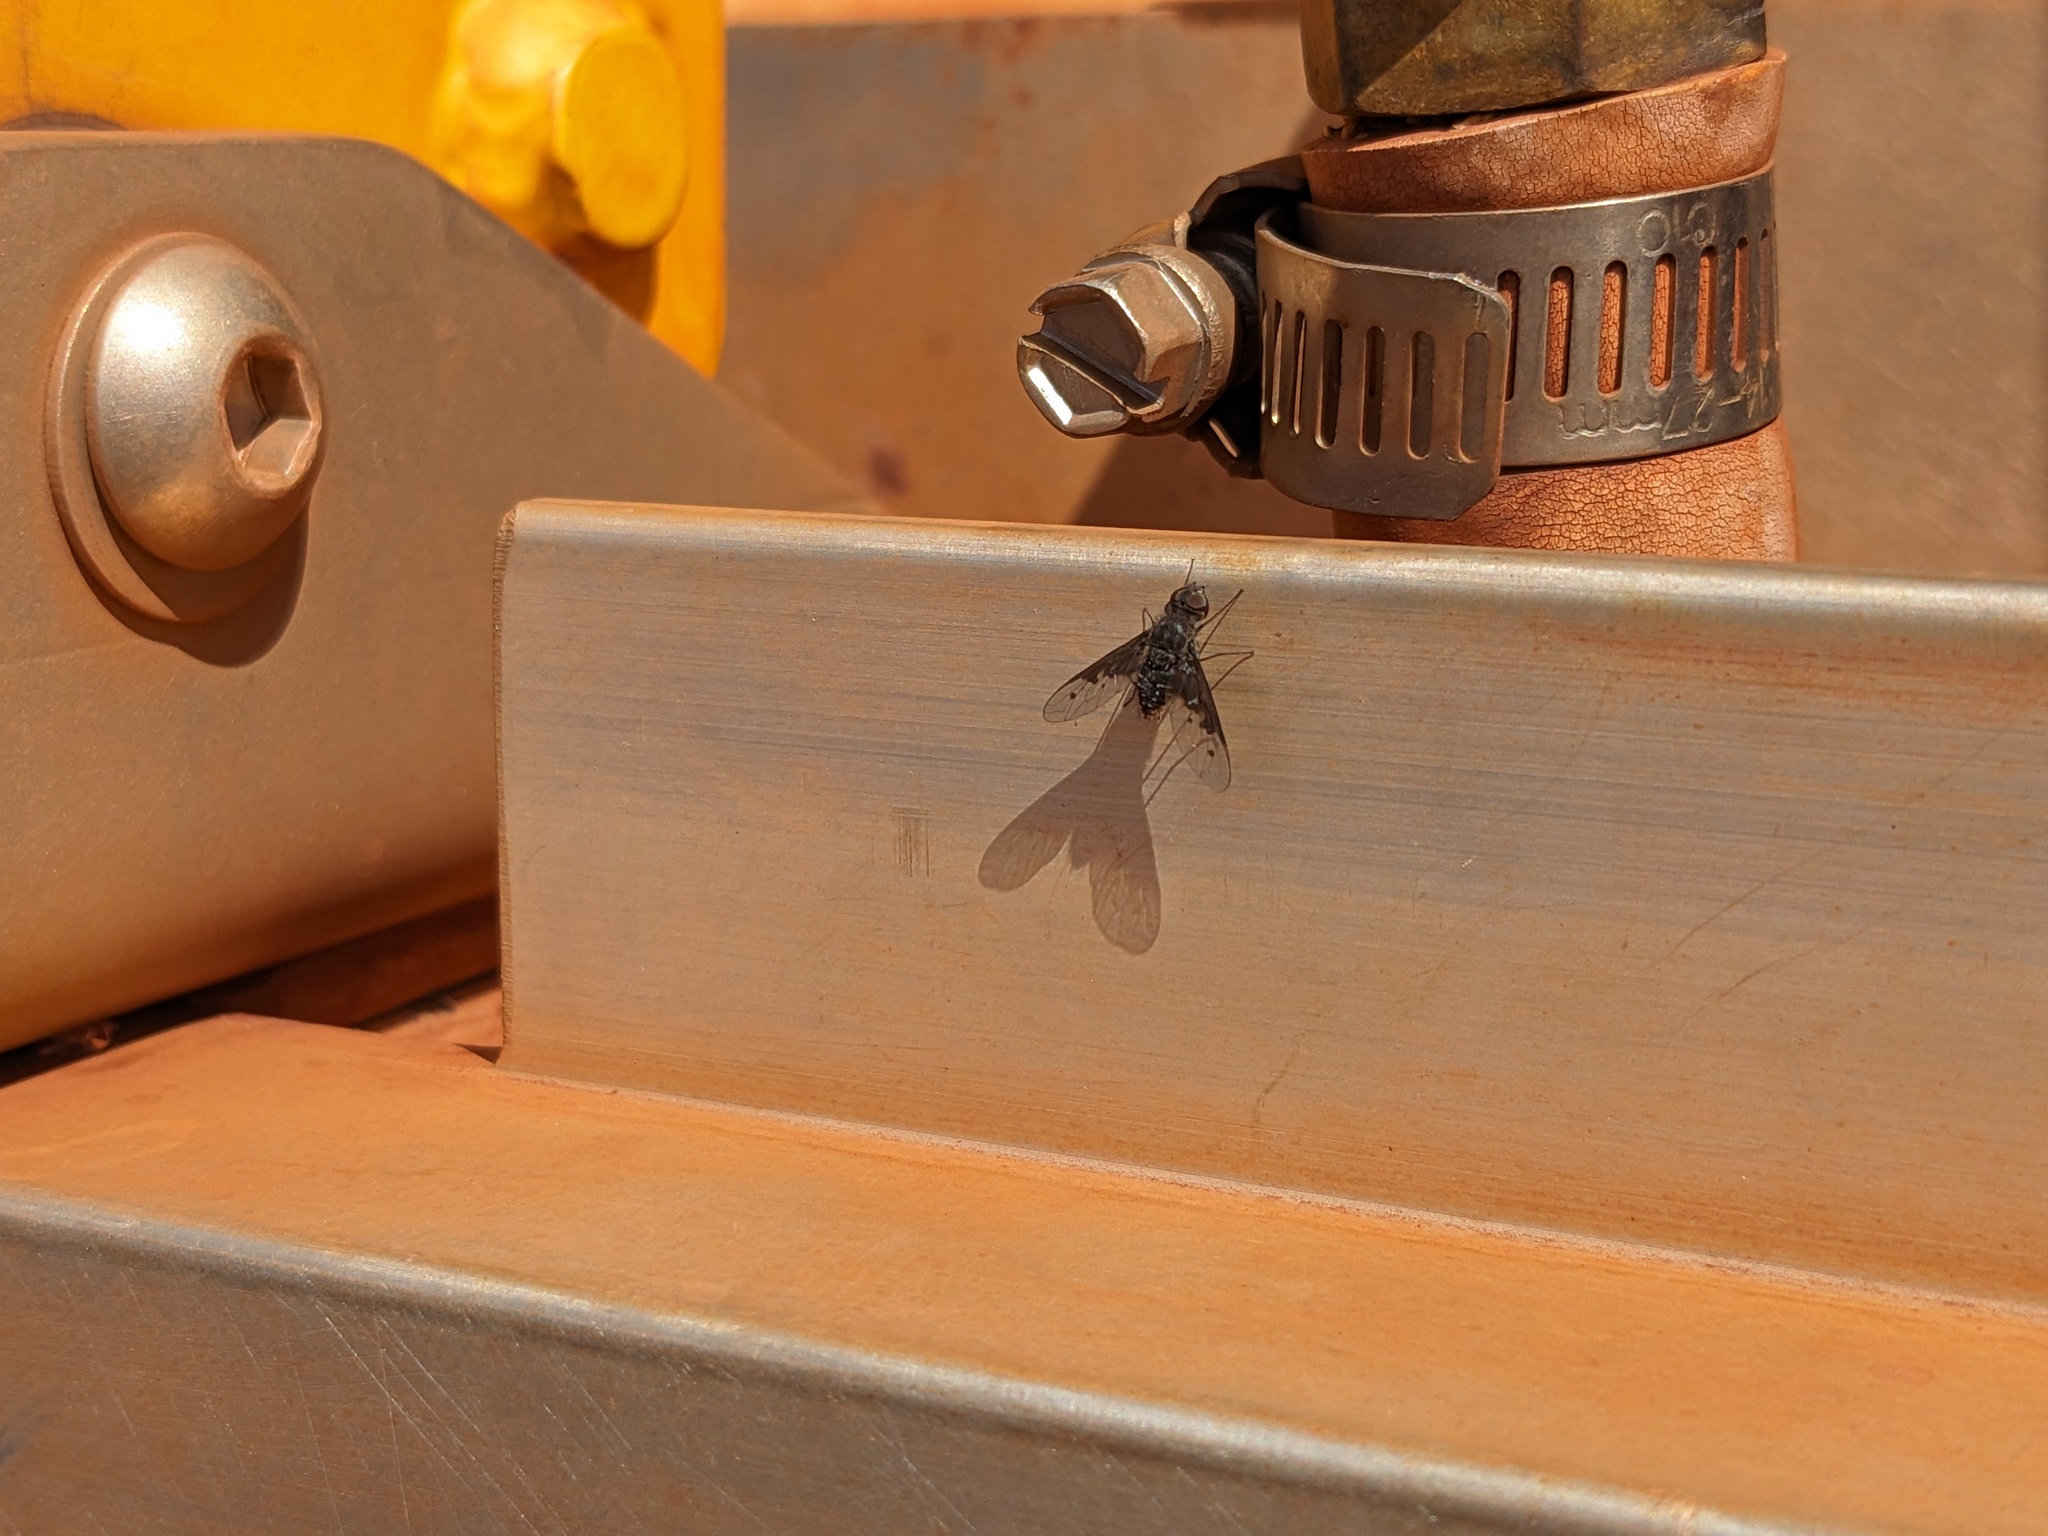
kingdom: Animalia
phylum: Arthropoda
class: Insecta
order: Diptera
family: Bombyliidae
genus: Anthrax
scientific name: Anthrax incomptus
